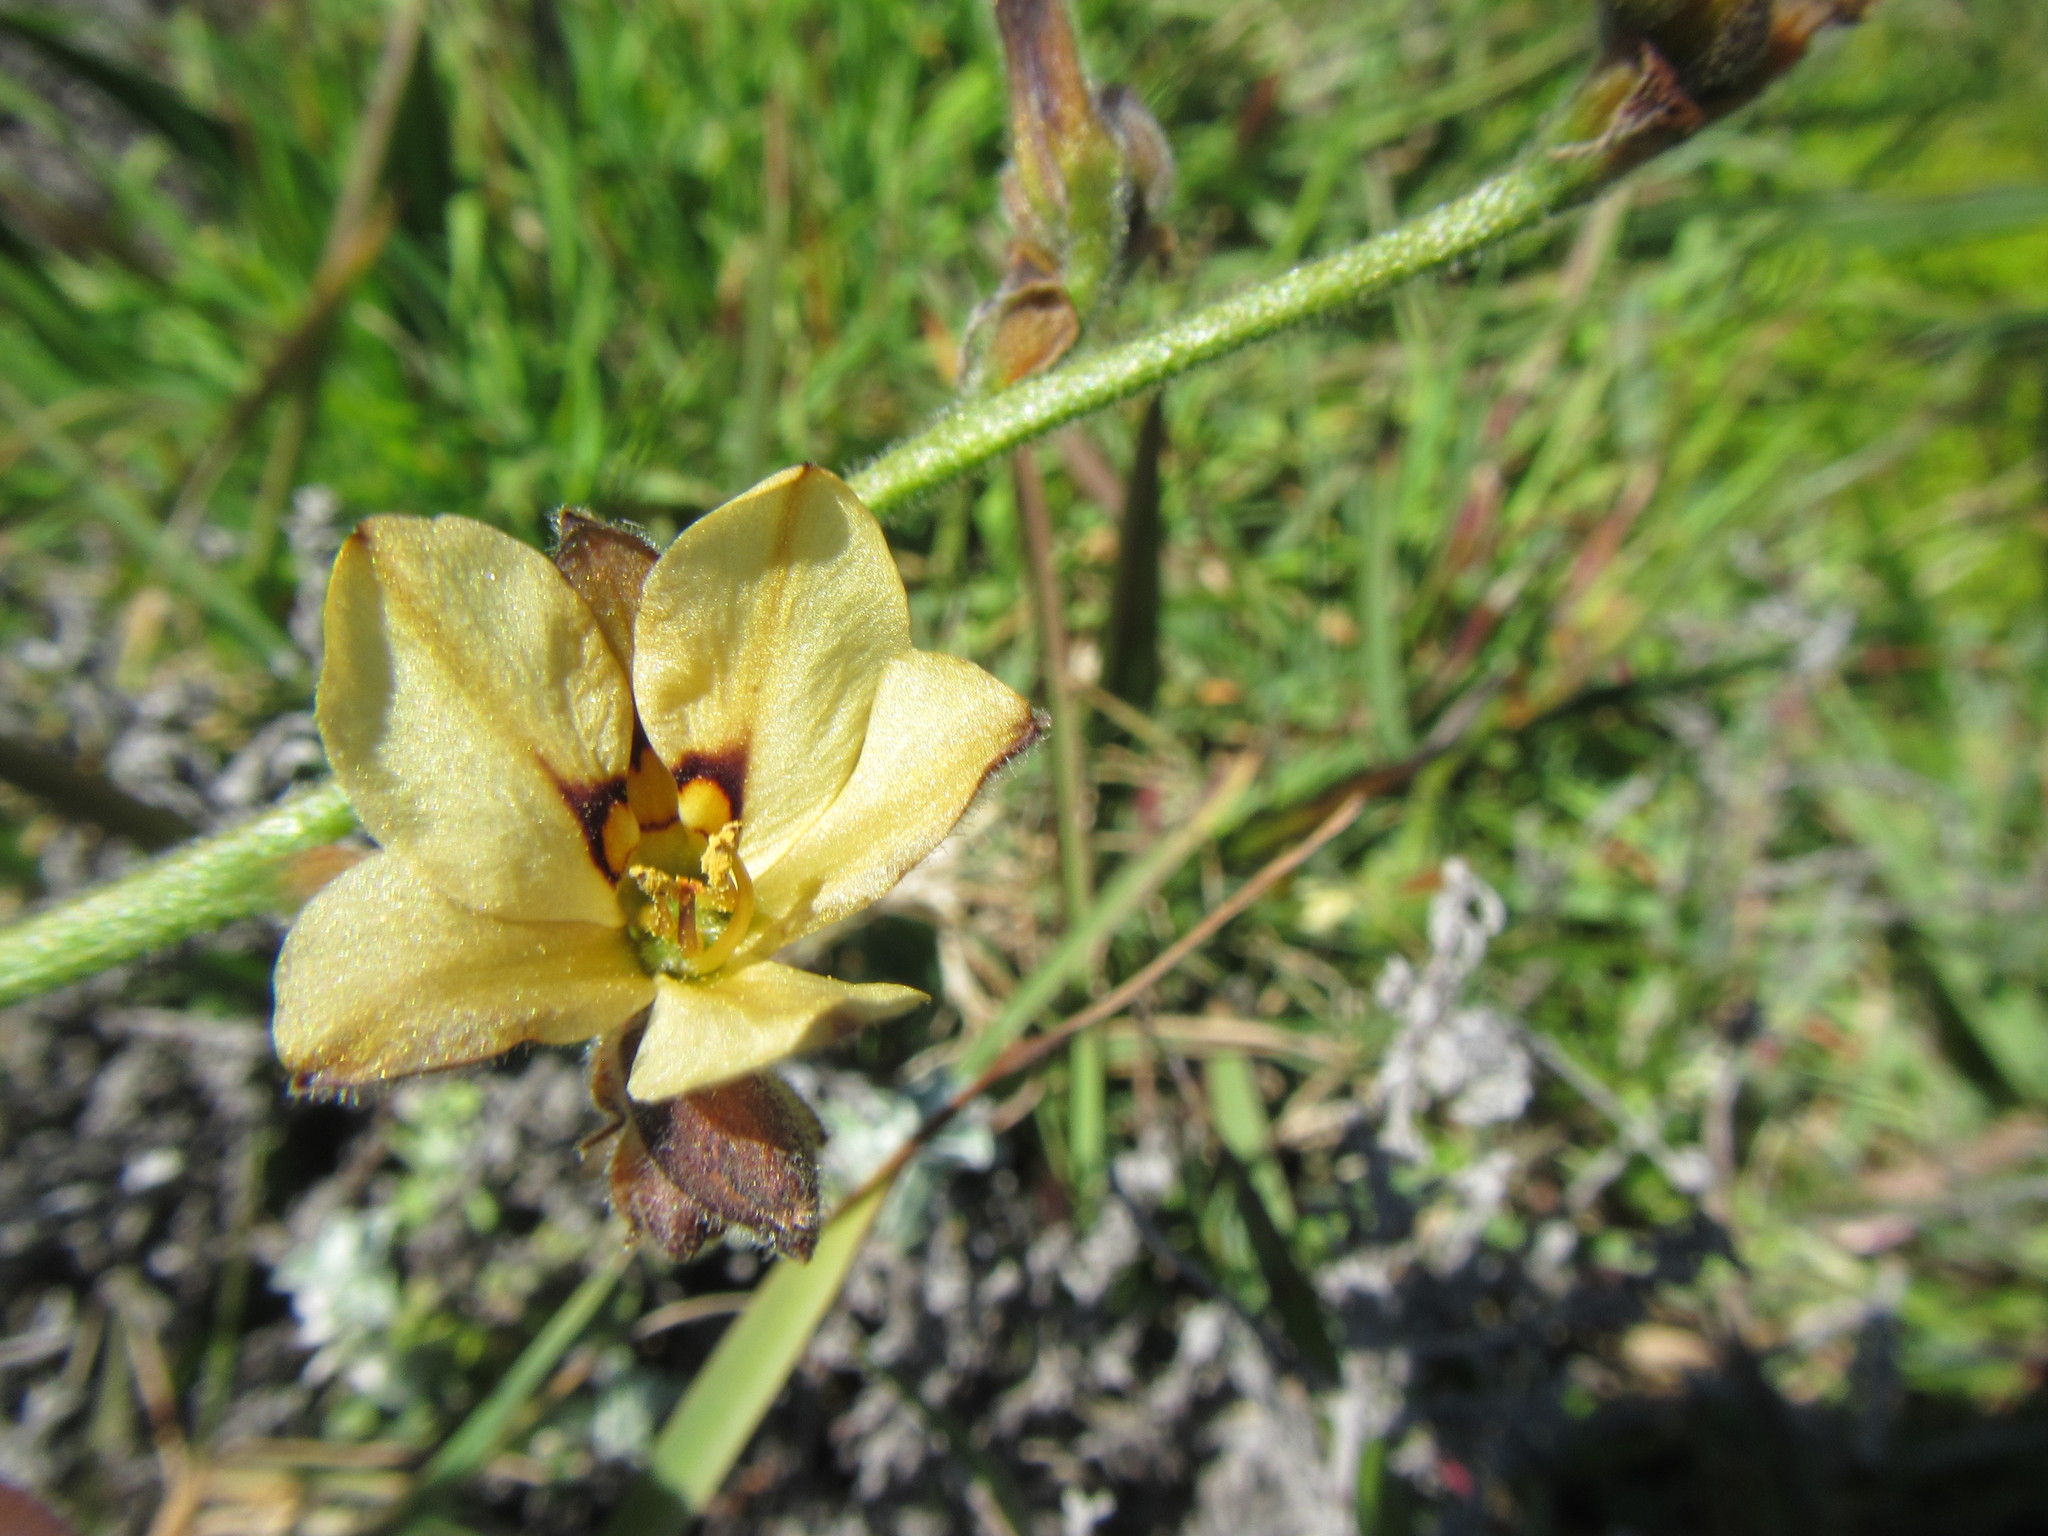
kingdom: Plantae
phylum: Tracheophyta
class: Liliopsida
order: Commelinales
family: Haemodoraceae
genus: Wachendorfia
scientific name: Wachendorfia brachyandra
